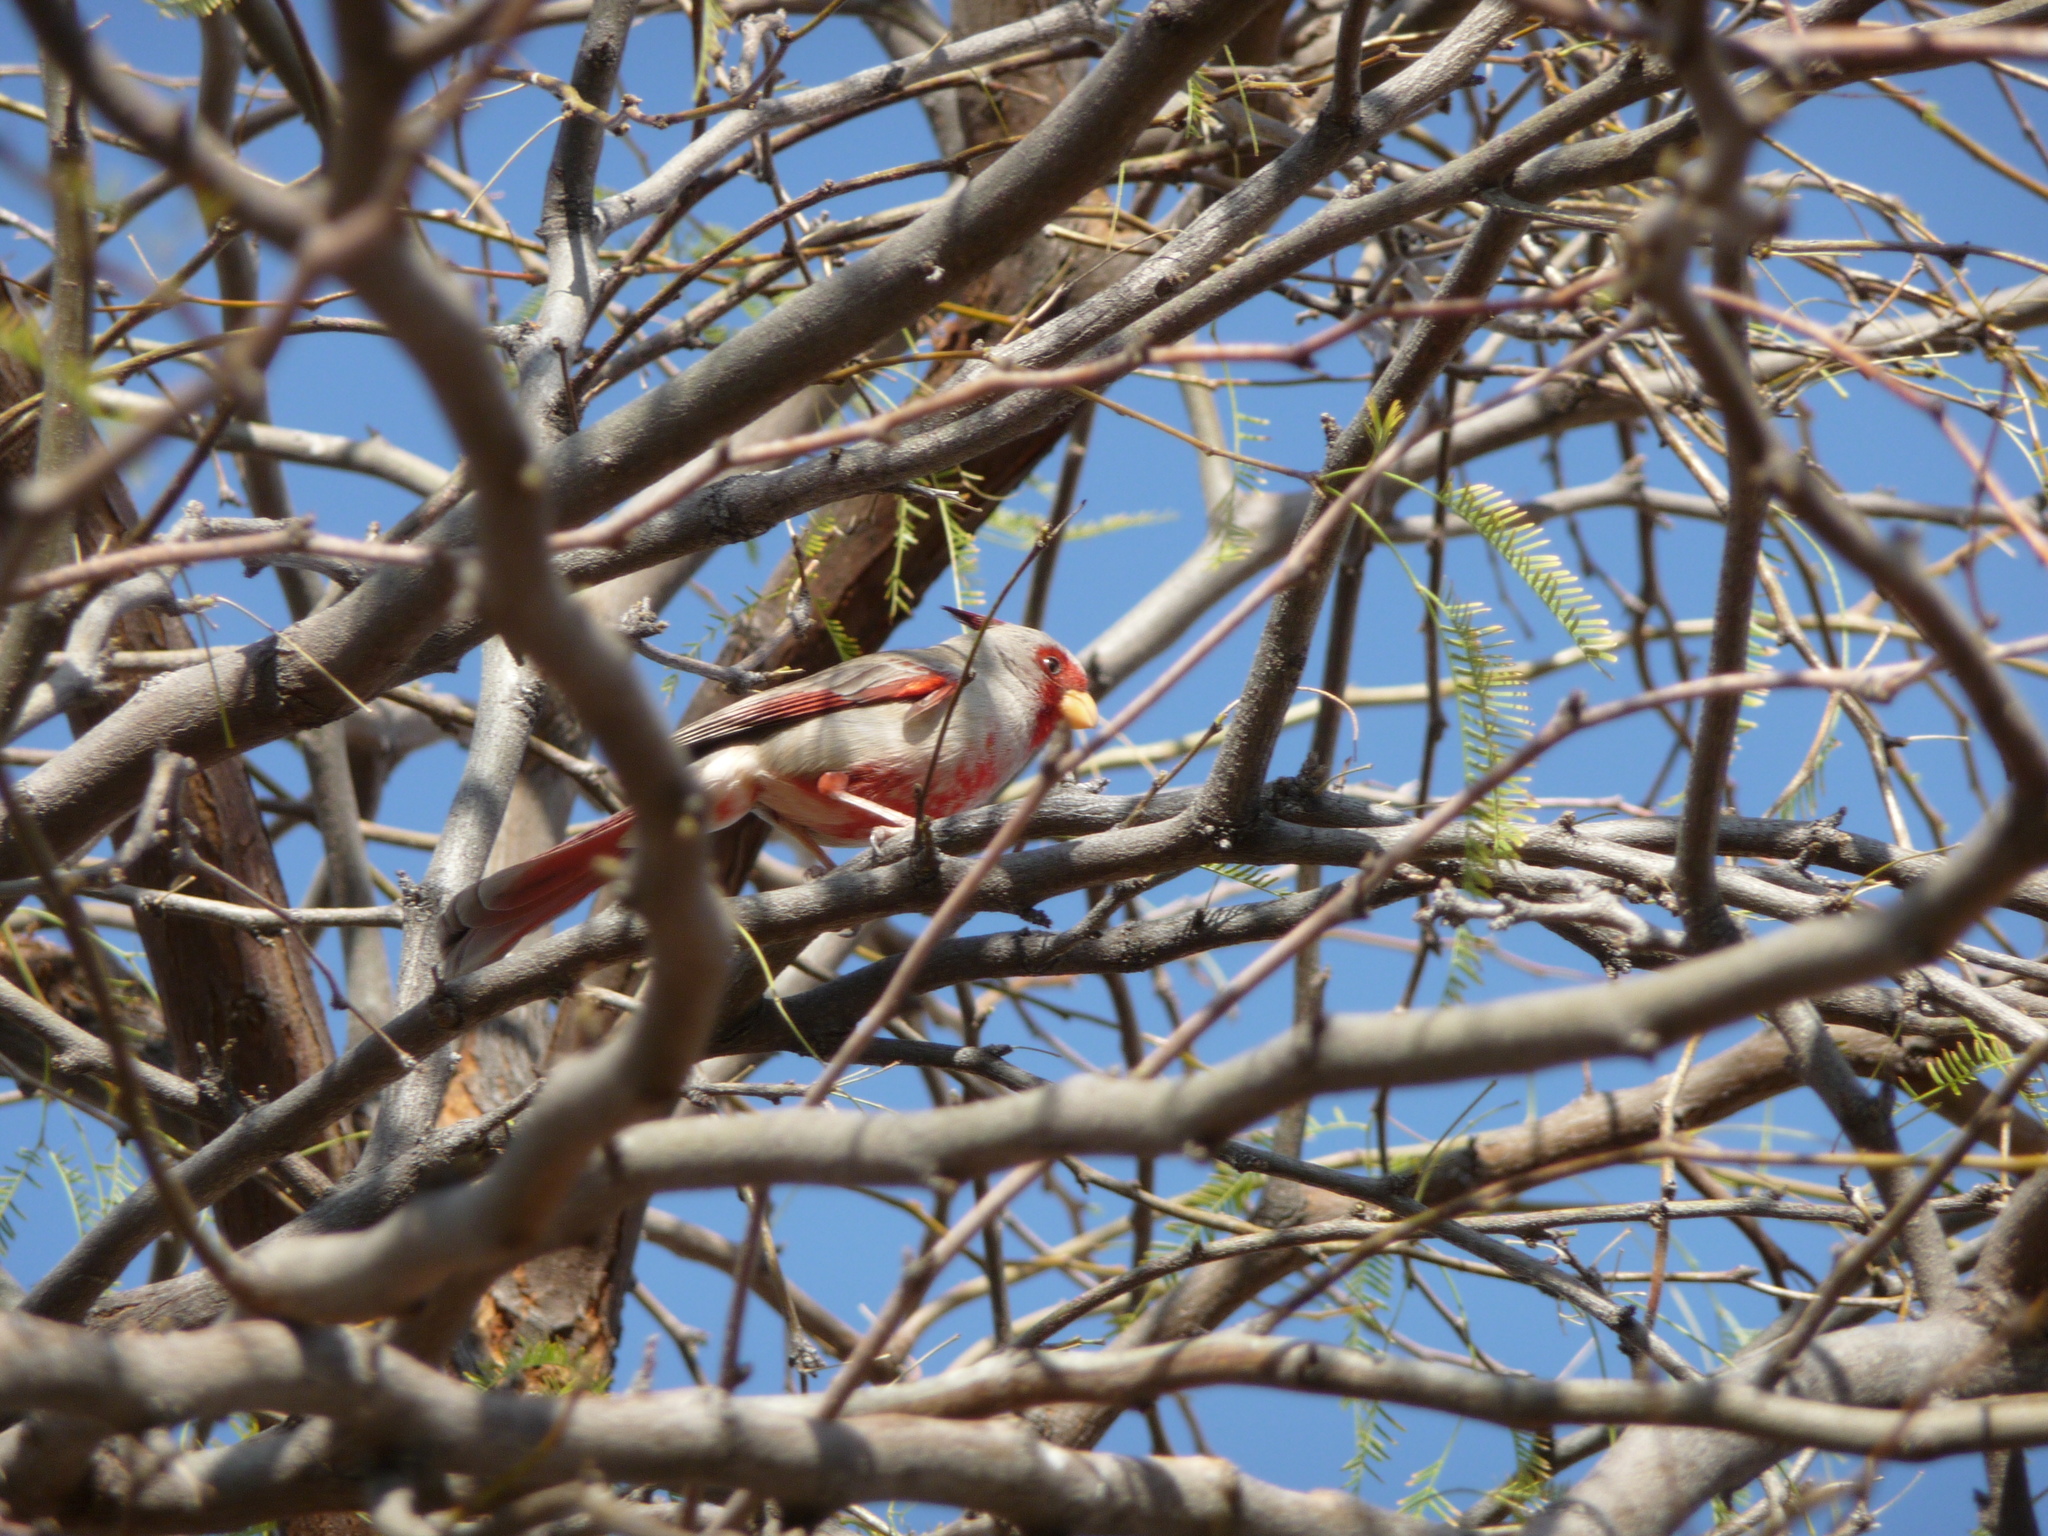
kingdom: Animalia
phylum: Chordata
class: Aves
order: Passeriformes
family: Cardinalidae
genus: Cardinalis
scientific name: Cardinalis sinuatus
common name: Pyrrhuloxia
